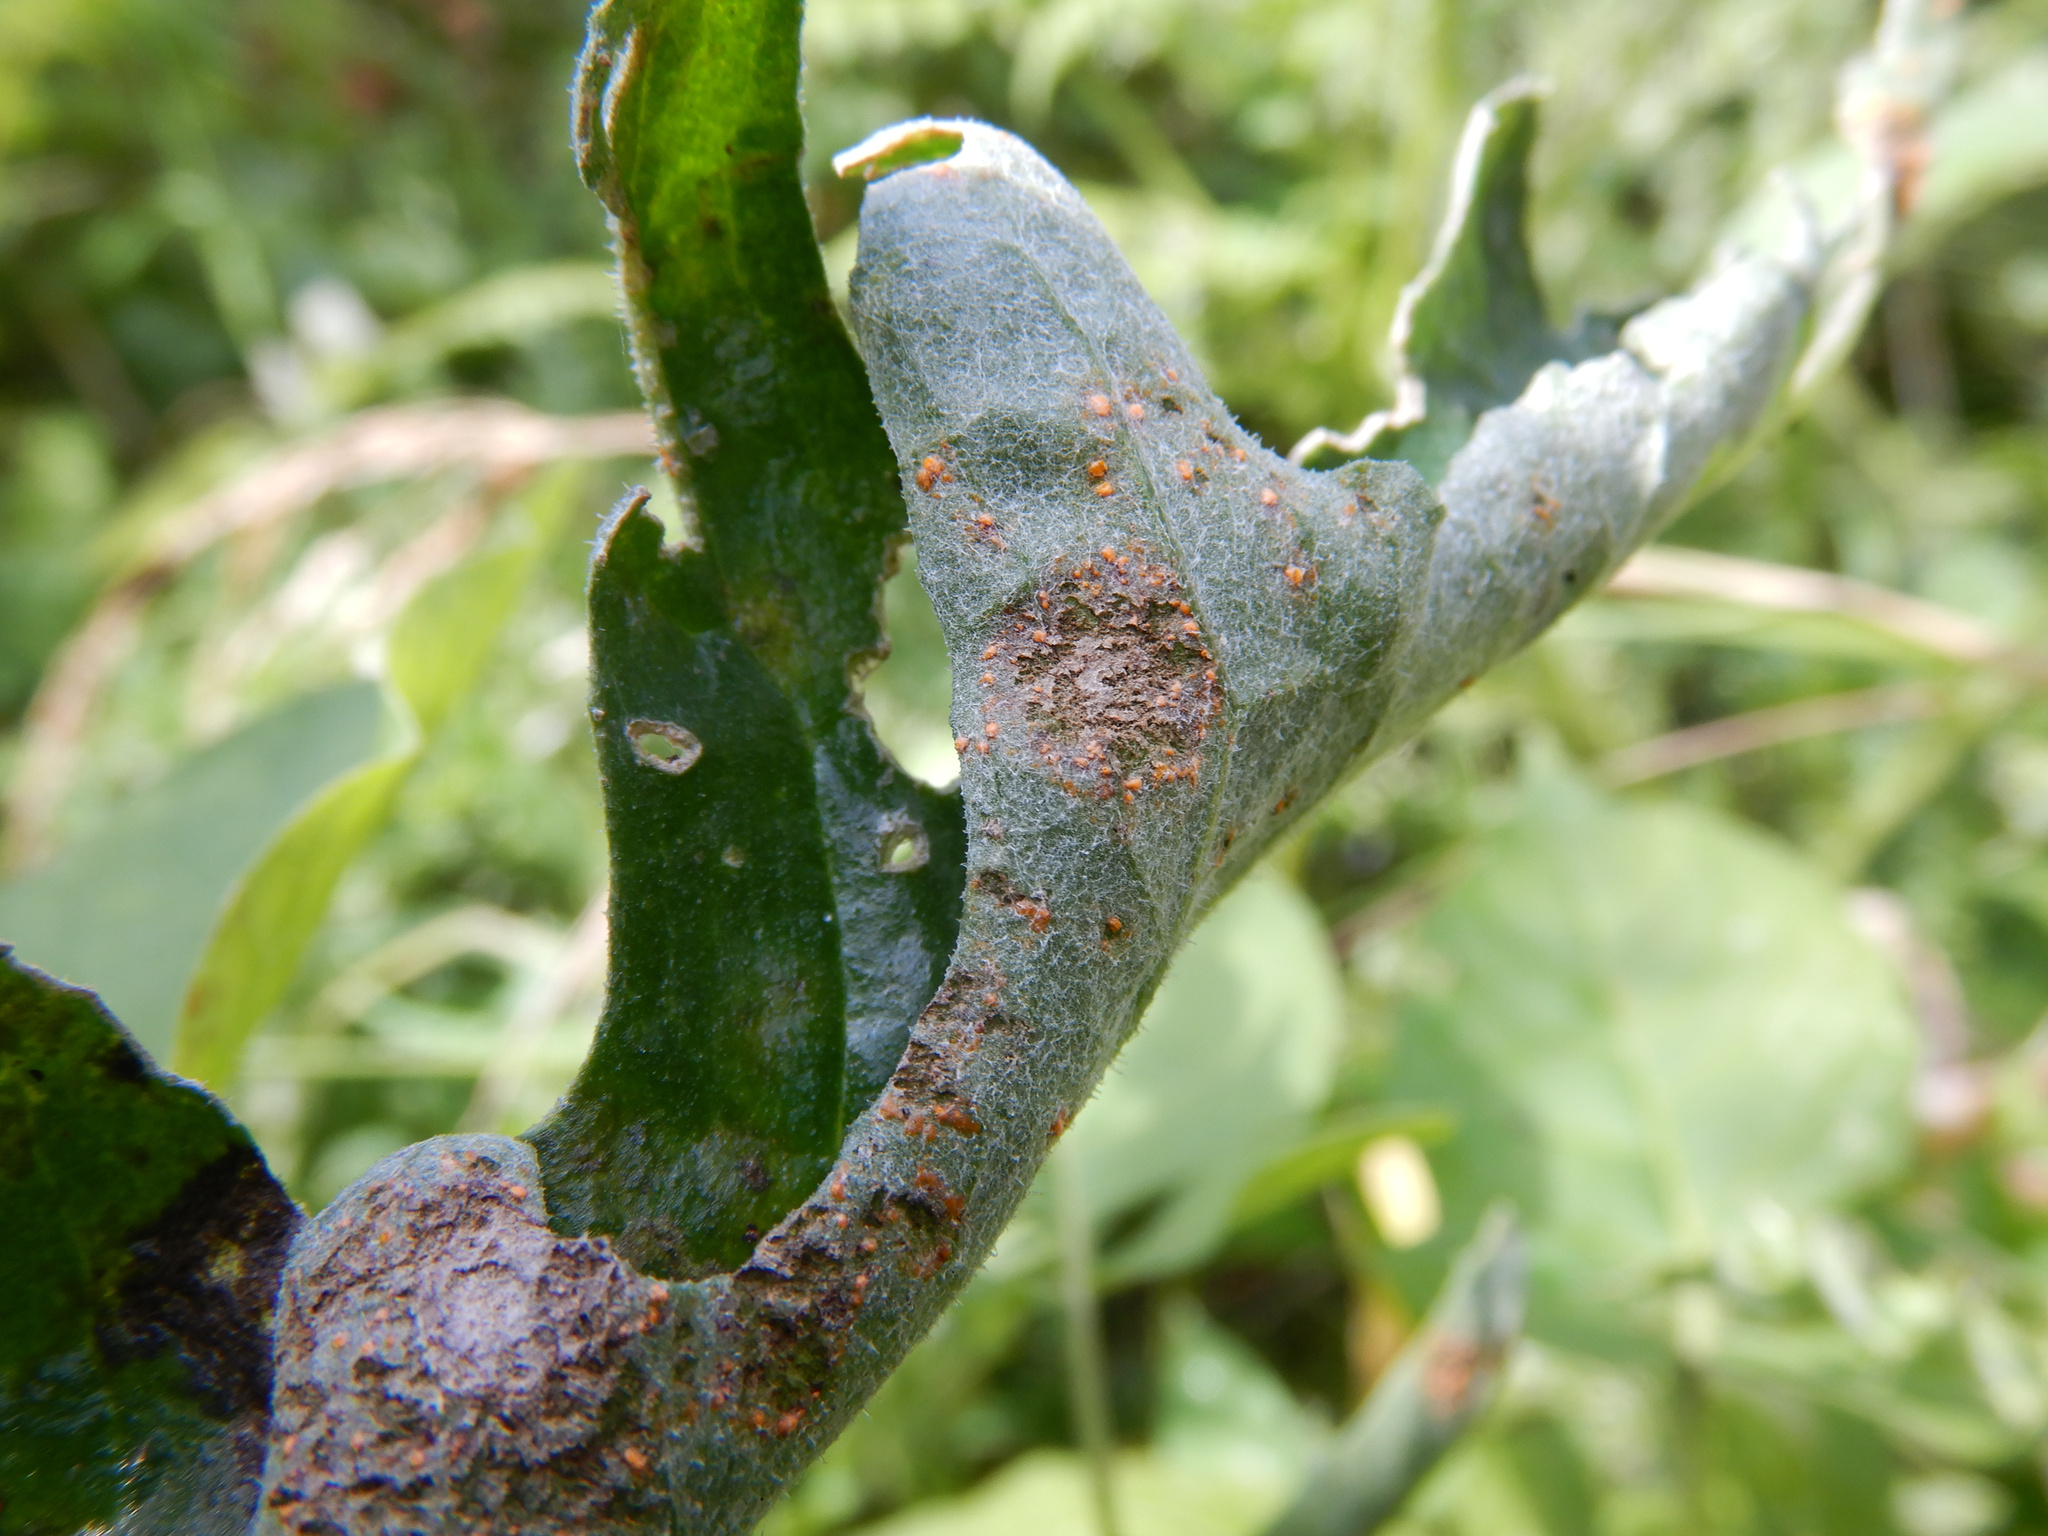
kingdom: Fungi
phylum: Basidiomycota
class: Pucciniomycetes
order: Pucciniales
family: Coleosporiaceae
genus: Coleosporium
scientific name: Coleosporium tussilaginis
